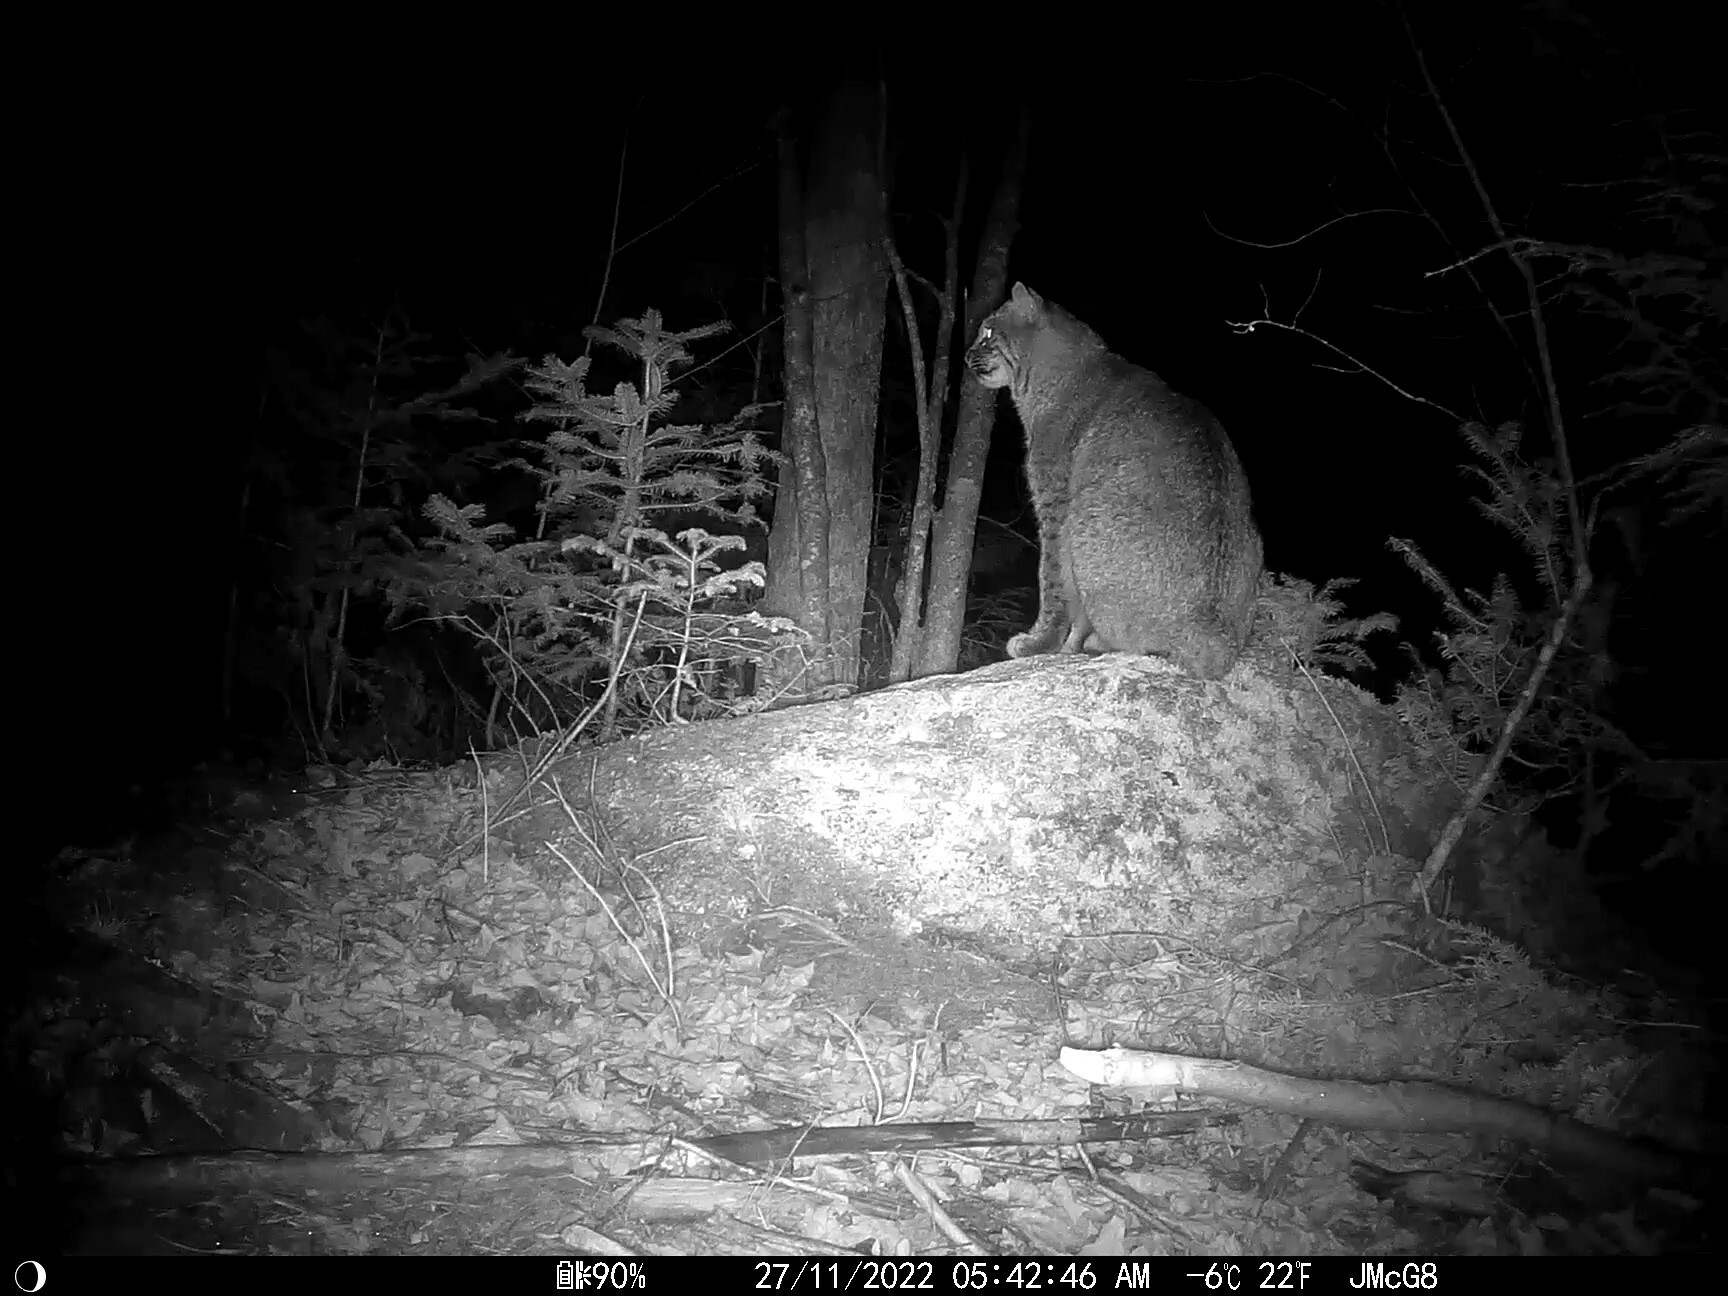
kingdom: Animalia
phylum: Chordata
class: Mammalia
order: Carnivora
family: Felidae
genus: Lynx
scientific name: Lynx rufus
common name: Bobcat
